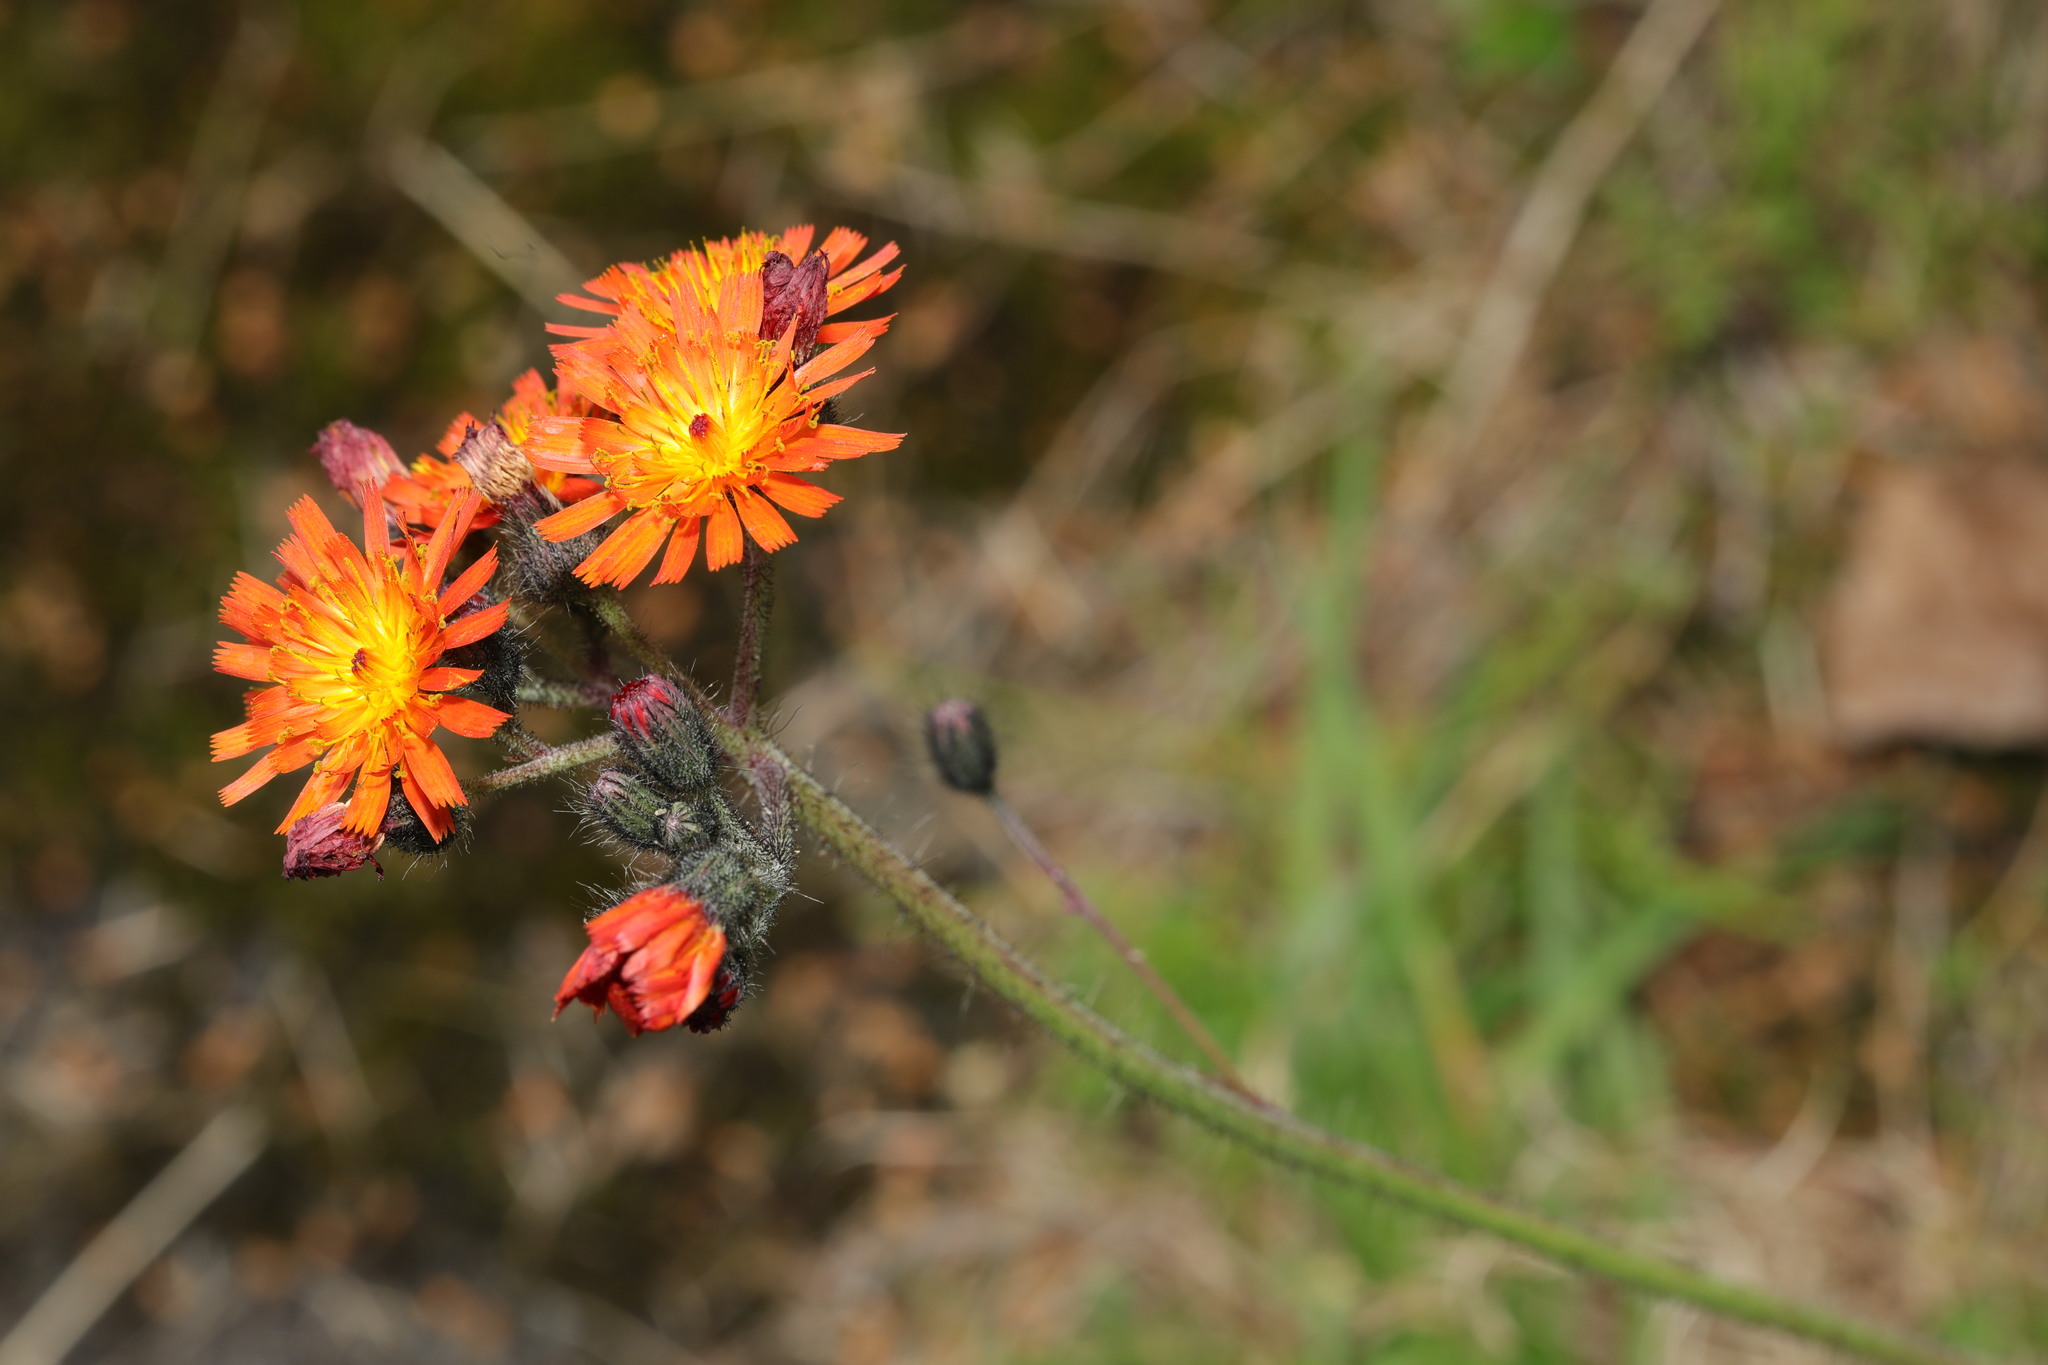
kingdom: Plantae
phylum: Tracheophyta
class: Magnoliopsida
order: Asterales
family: Asteraceae
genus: Pilosella
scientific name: Pilosella aurantiaca
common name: Fox-and-cubs
